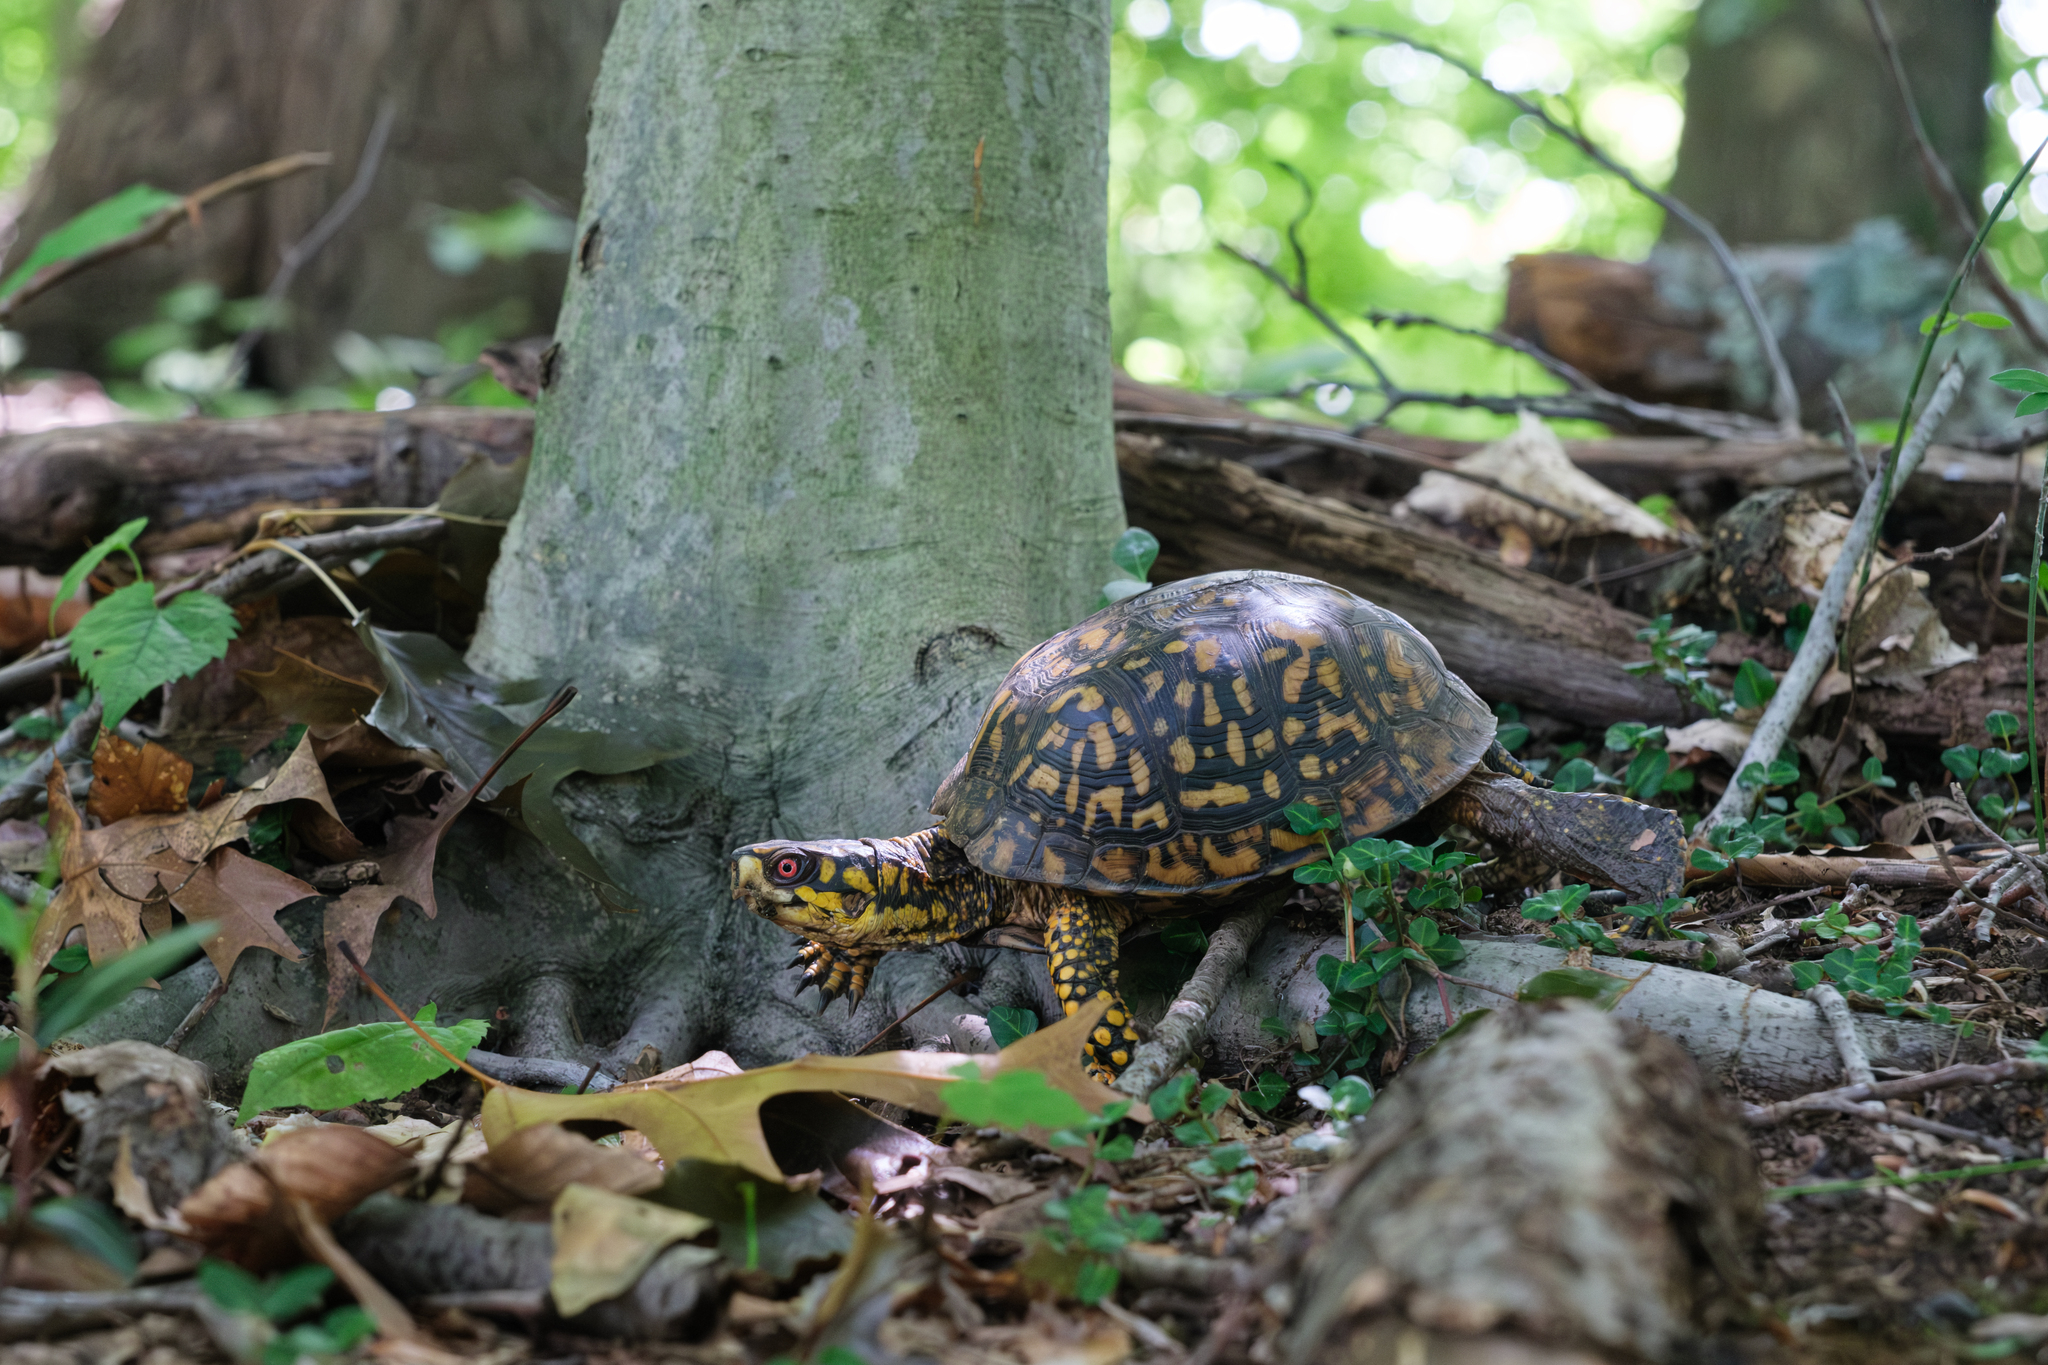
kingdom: Animalia
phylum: Chordata
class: Testudines
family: Emydidae
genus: Terrapene
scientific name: Terrapene carolina
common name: Common box turtle
